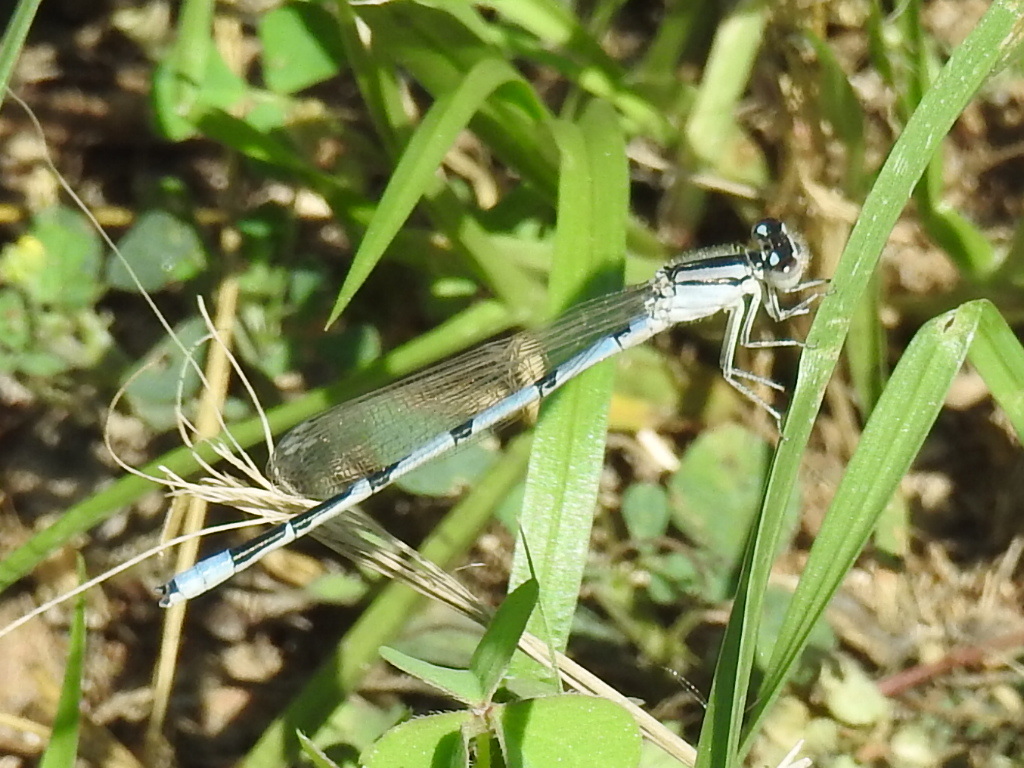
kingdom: Animalia
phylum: Arthropoda
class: Insecta
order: Odonata
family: Coenagrionidae
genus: Enallagma
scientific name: Enallagma civile
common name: Damselfly
